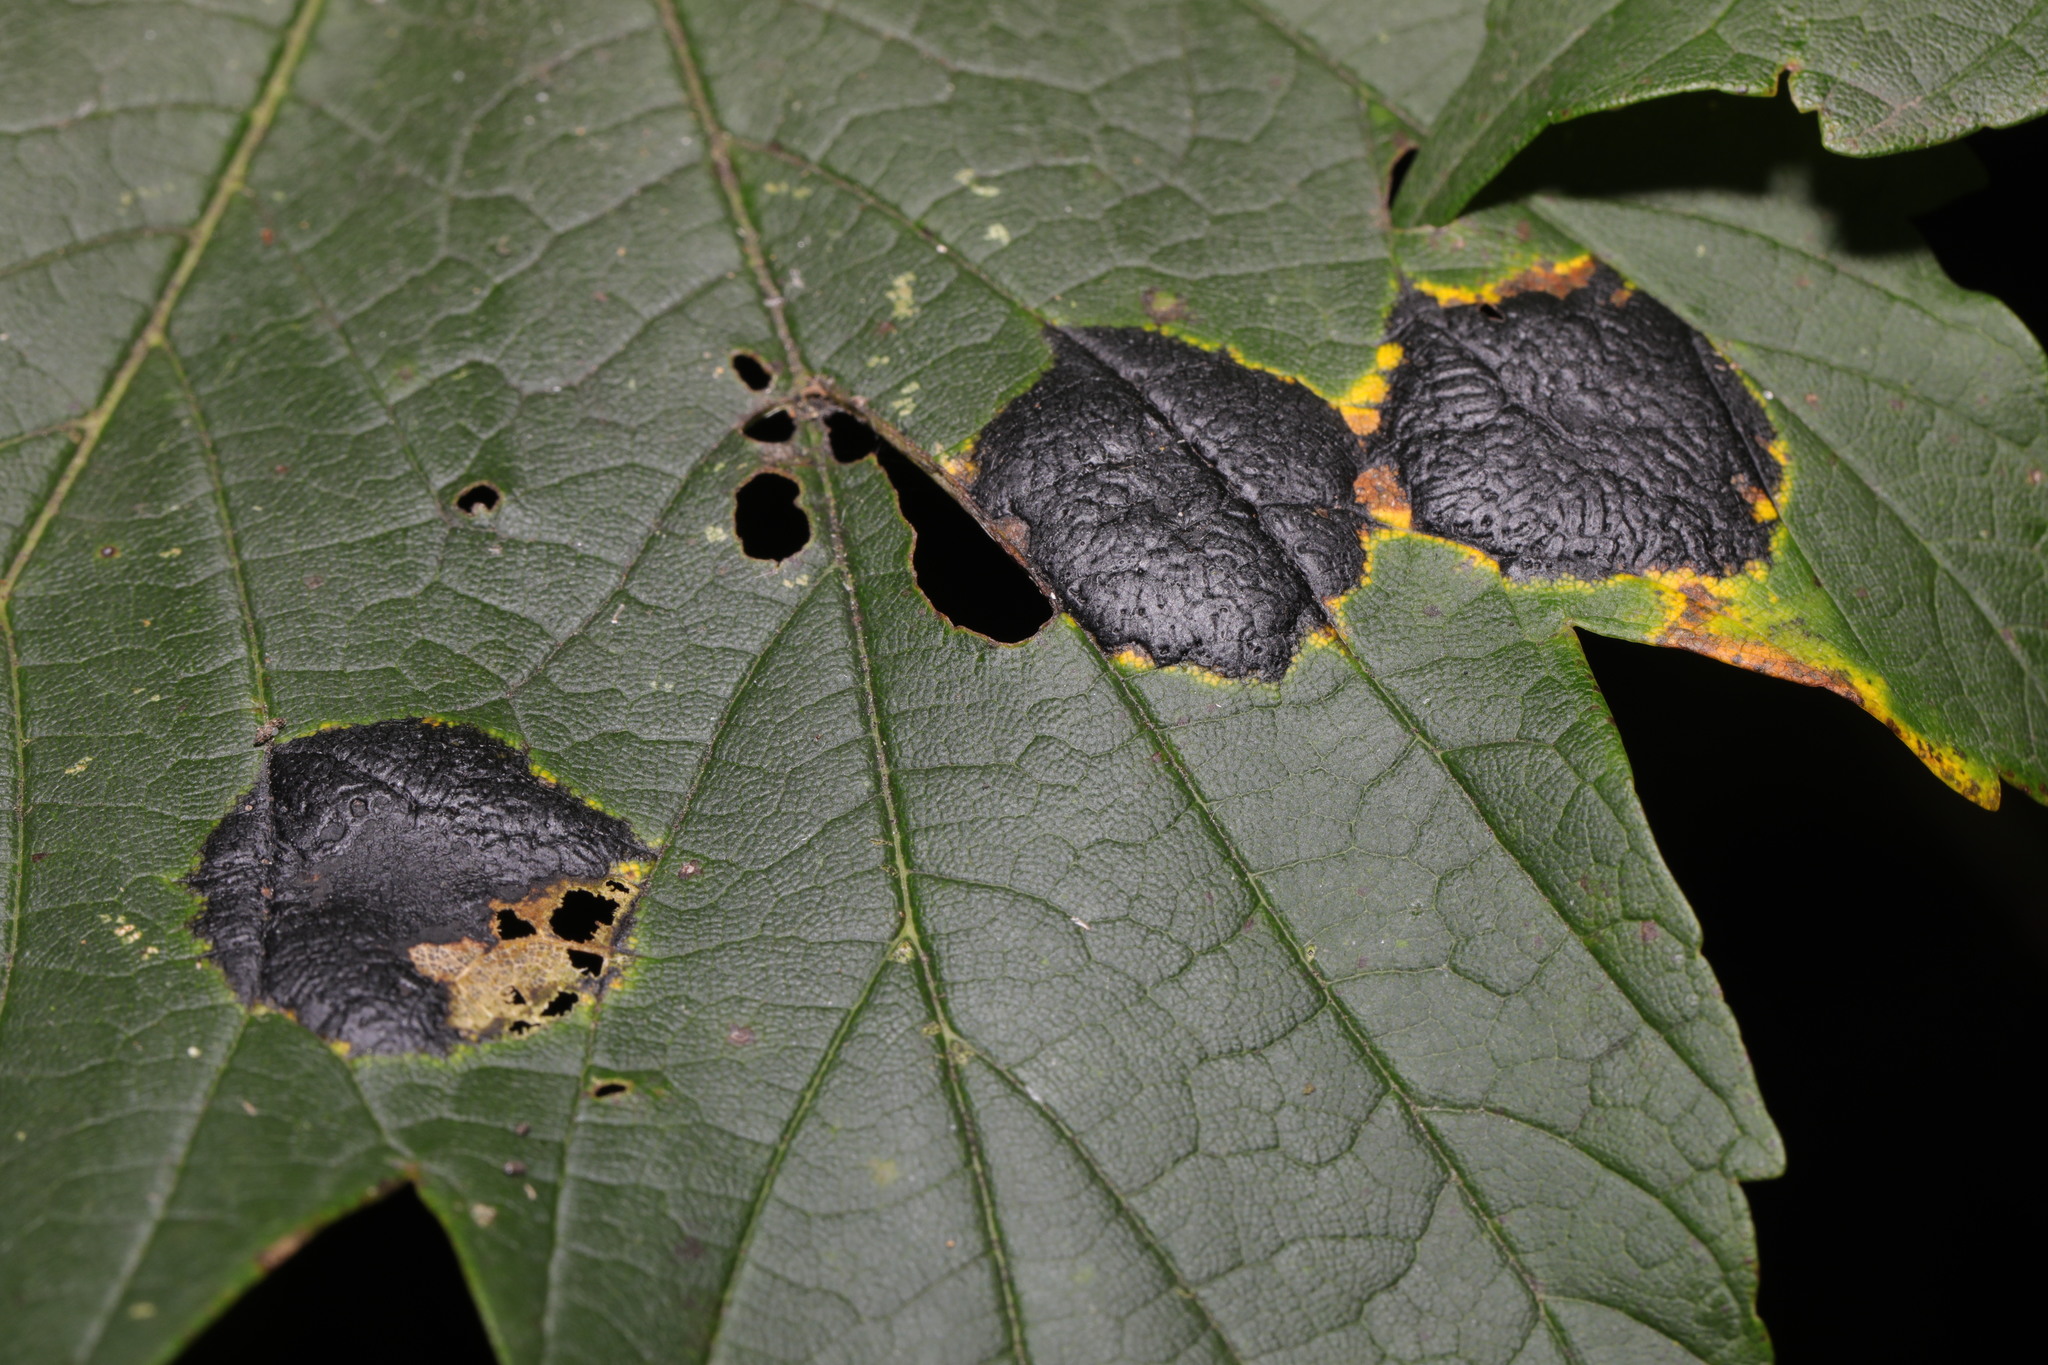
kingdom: Fungi
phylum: Ascomycota
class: Leotiomycetes
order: Rhytismatales
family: Rhytismataceae
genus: Rhytisma
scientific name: Rhytisma acerinum
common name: European tar spot
